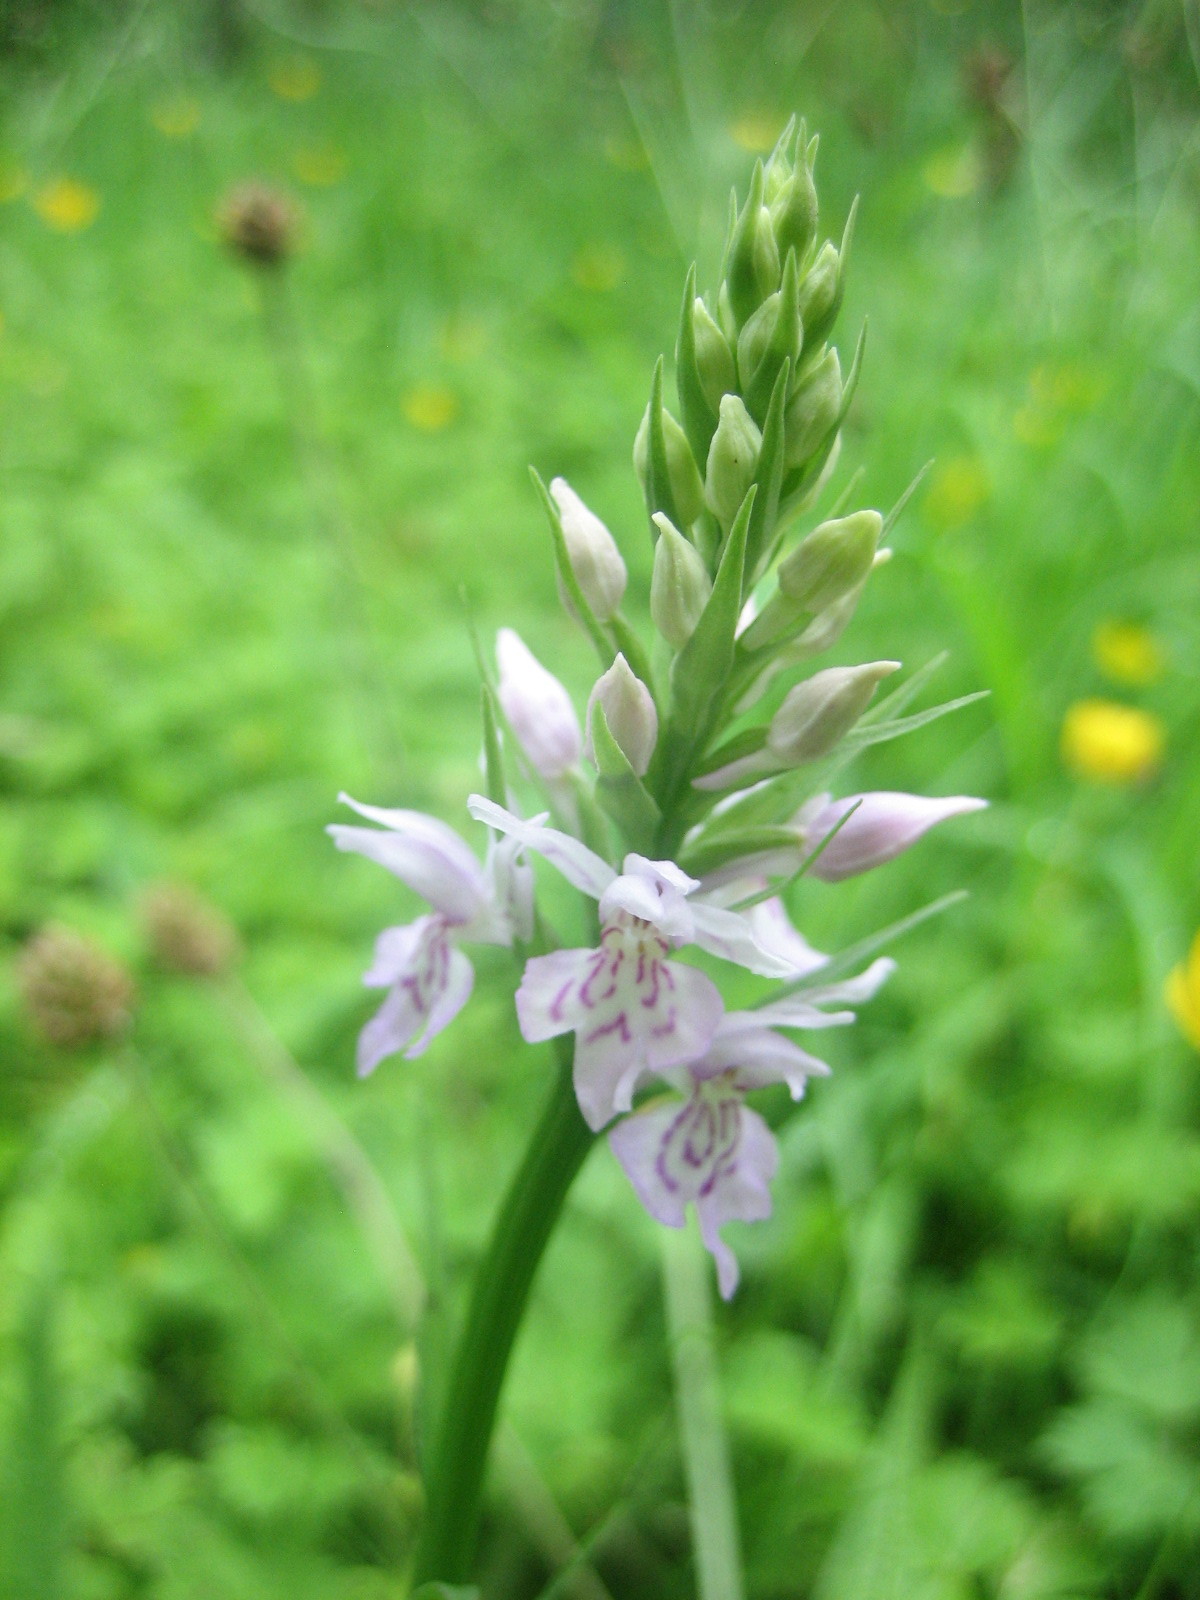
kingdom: Plantae
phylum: Tracheophyta
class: Liliopsida
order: Asparagales
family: Orchidaceae
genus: Dactylorhiza
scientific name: Dactylorhiza maculata
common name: Heath spotted-orchid
